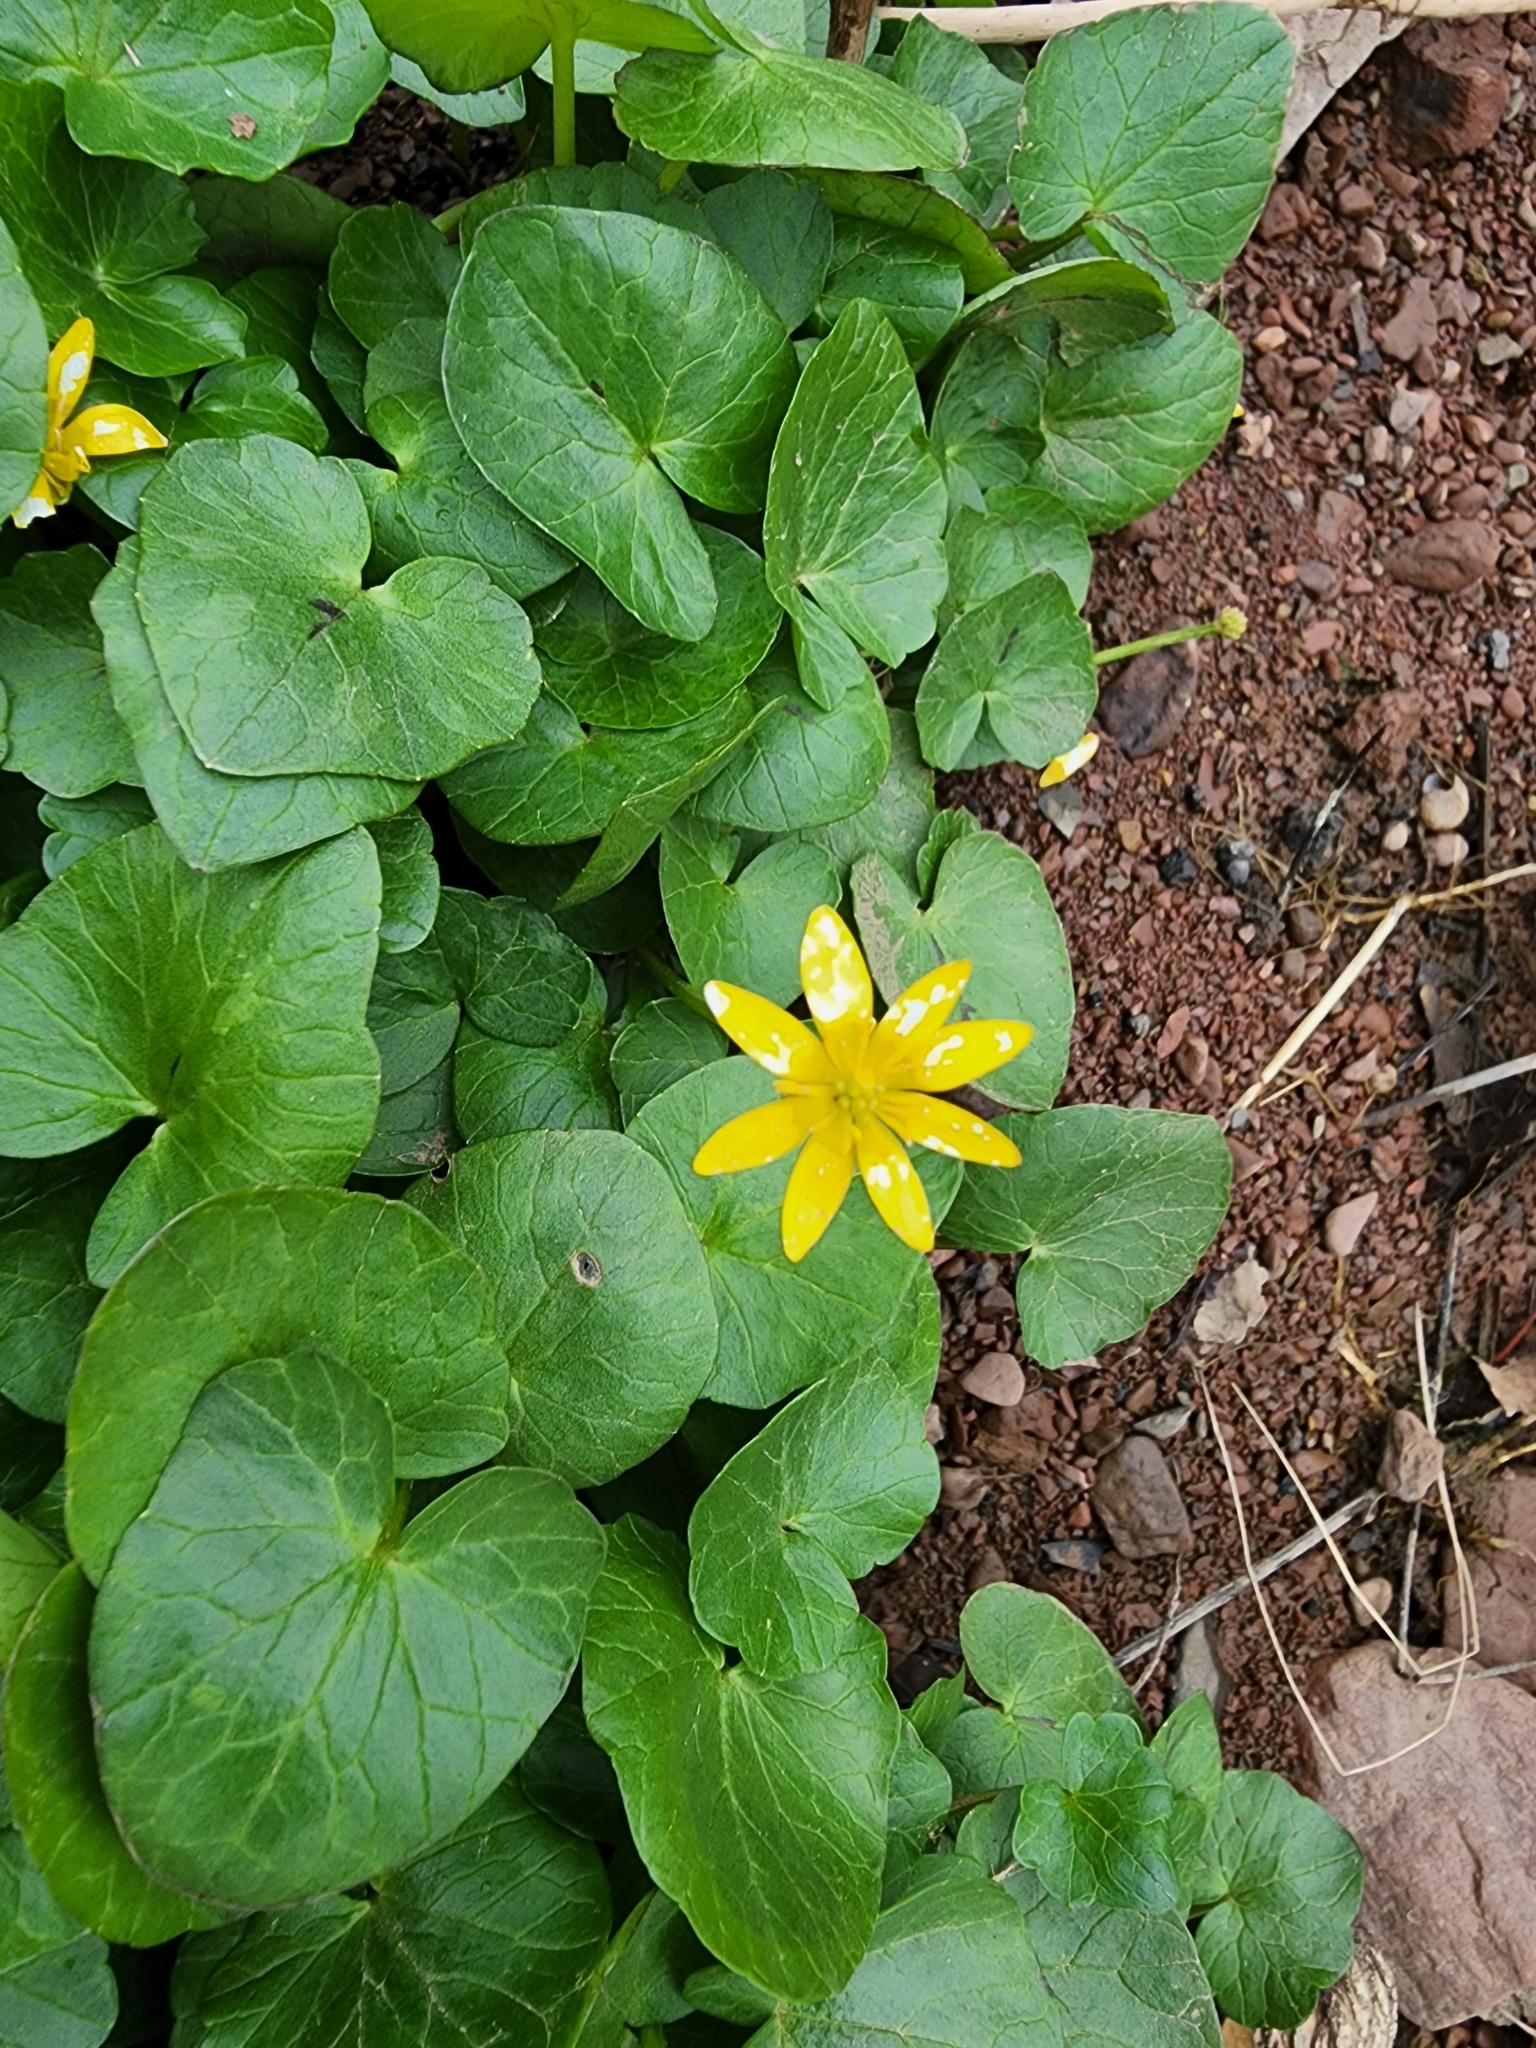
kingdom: Plantae
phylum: Tracheophyta
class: Magnoliopsida
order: Ranunculales
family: Ranunculaceae
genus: Ficaria
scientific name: Ficaria verna
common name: Lesser celandine
